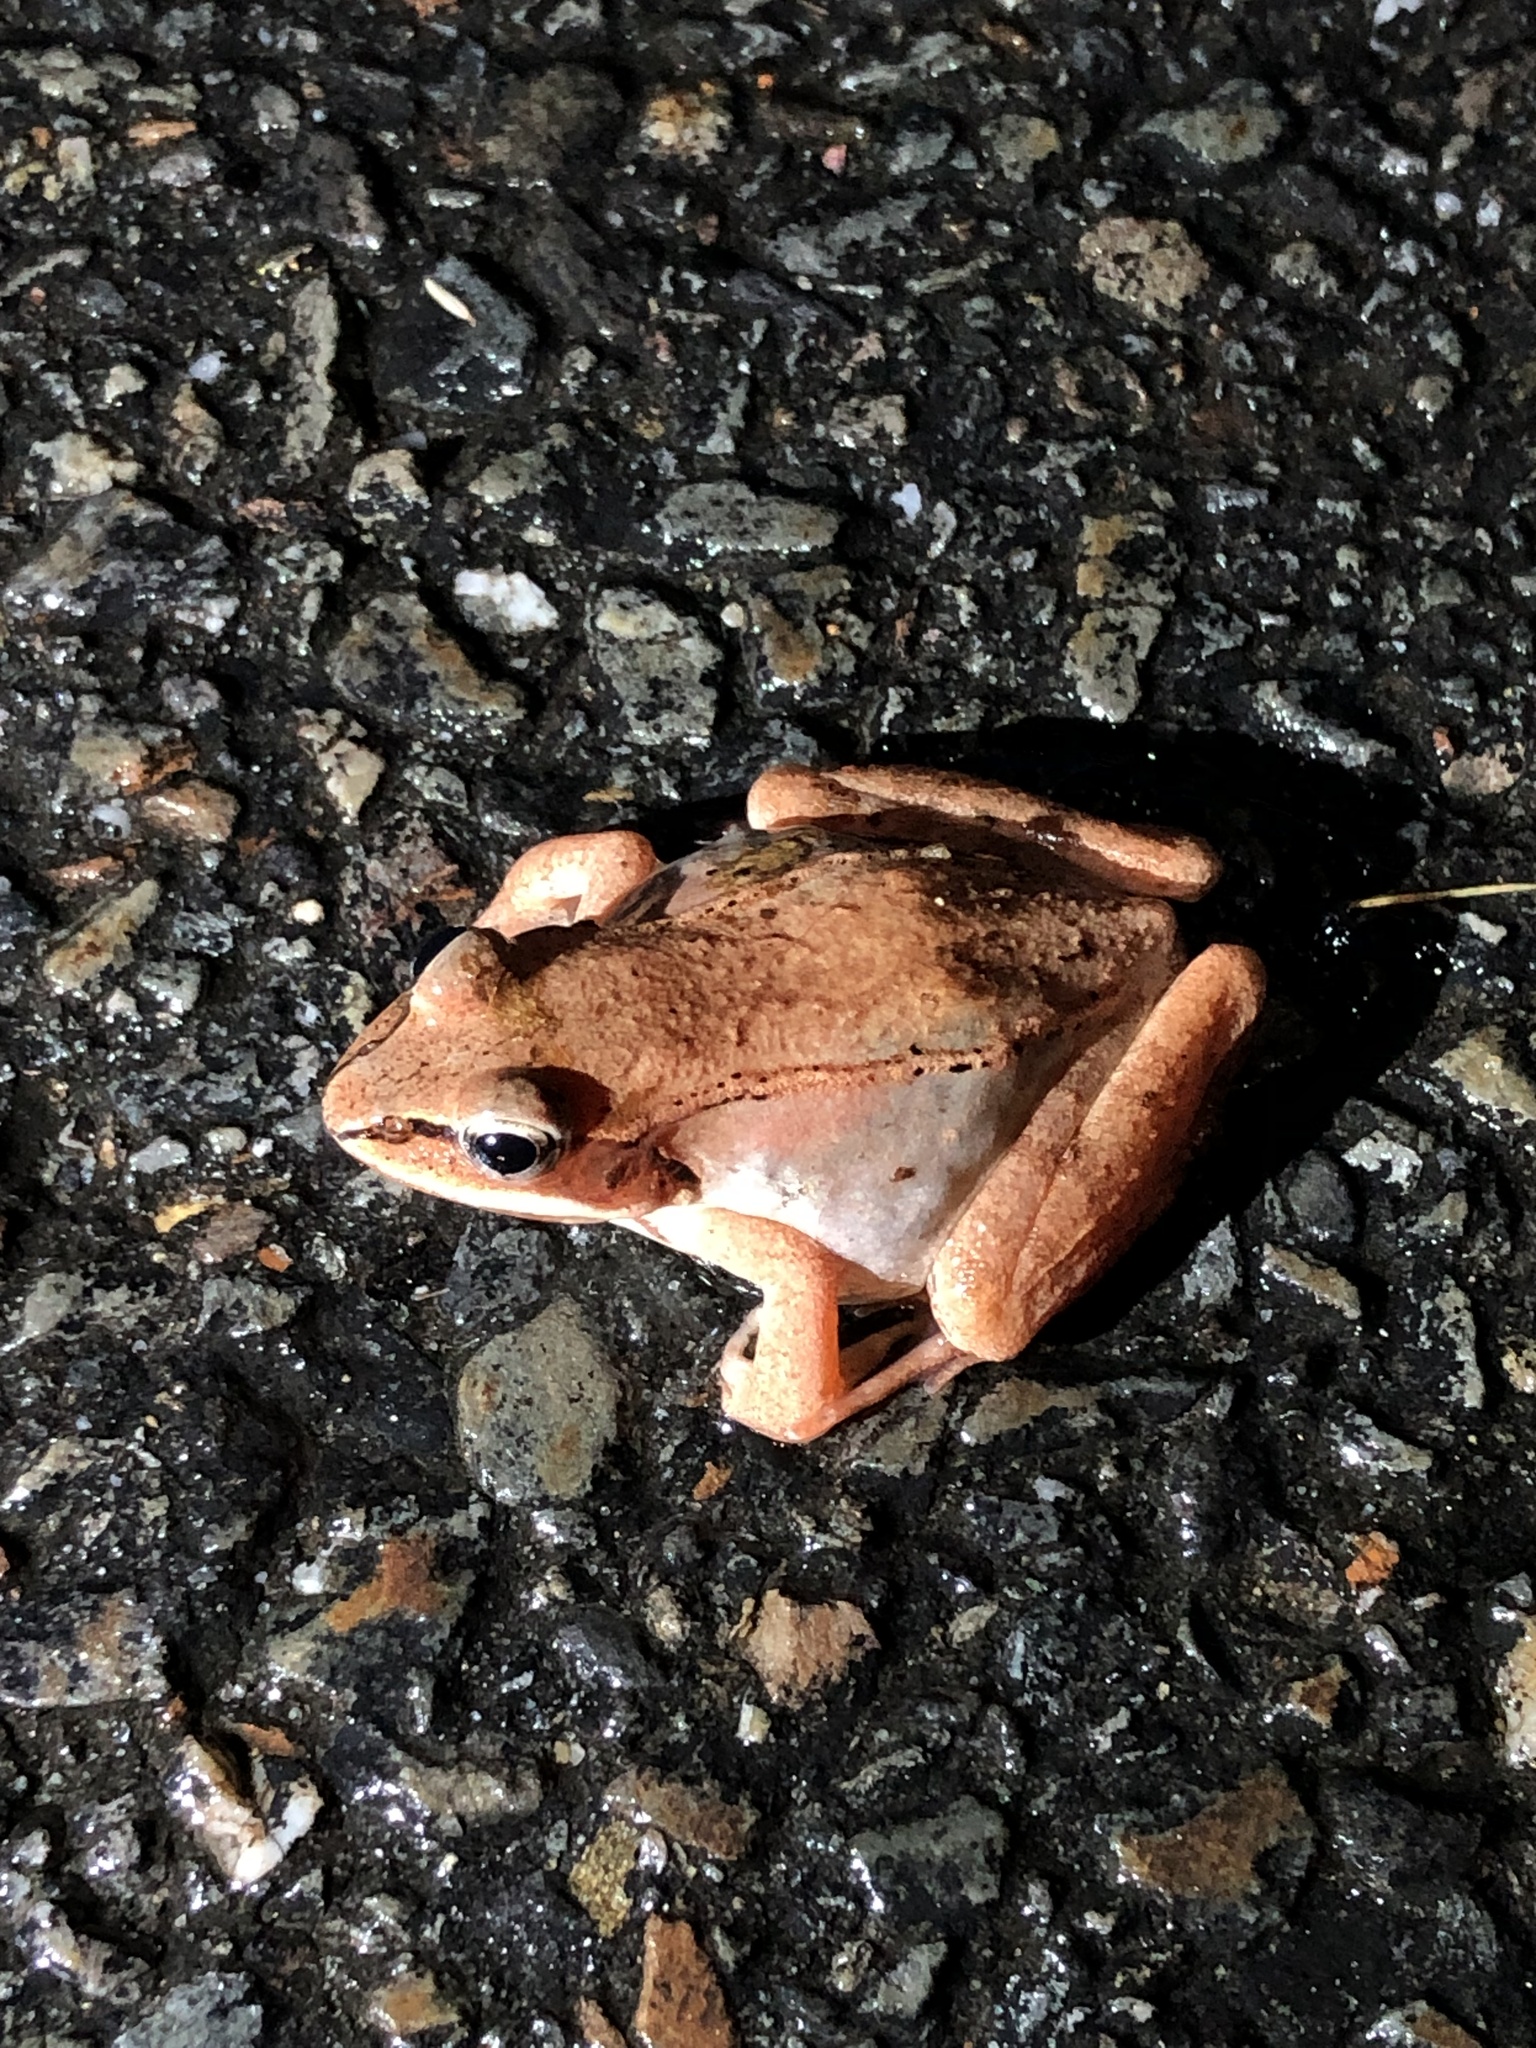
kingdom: Animalia
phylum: Chordata
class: Amphibia
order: Anura
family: Ranidae
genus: Lithobates
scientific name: Lithobates sylvaticus
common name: Wood frog
